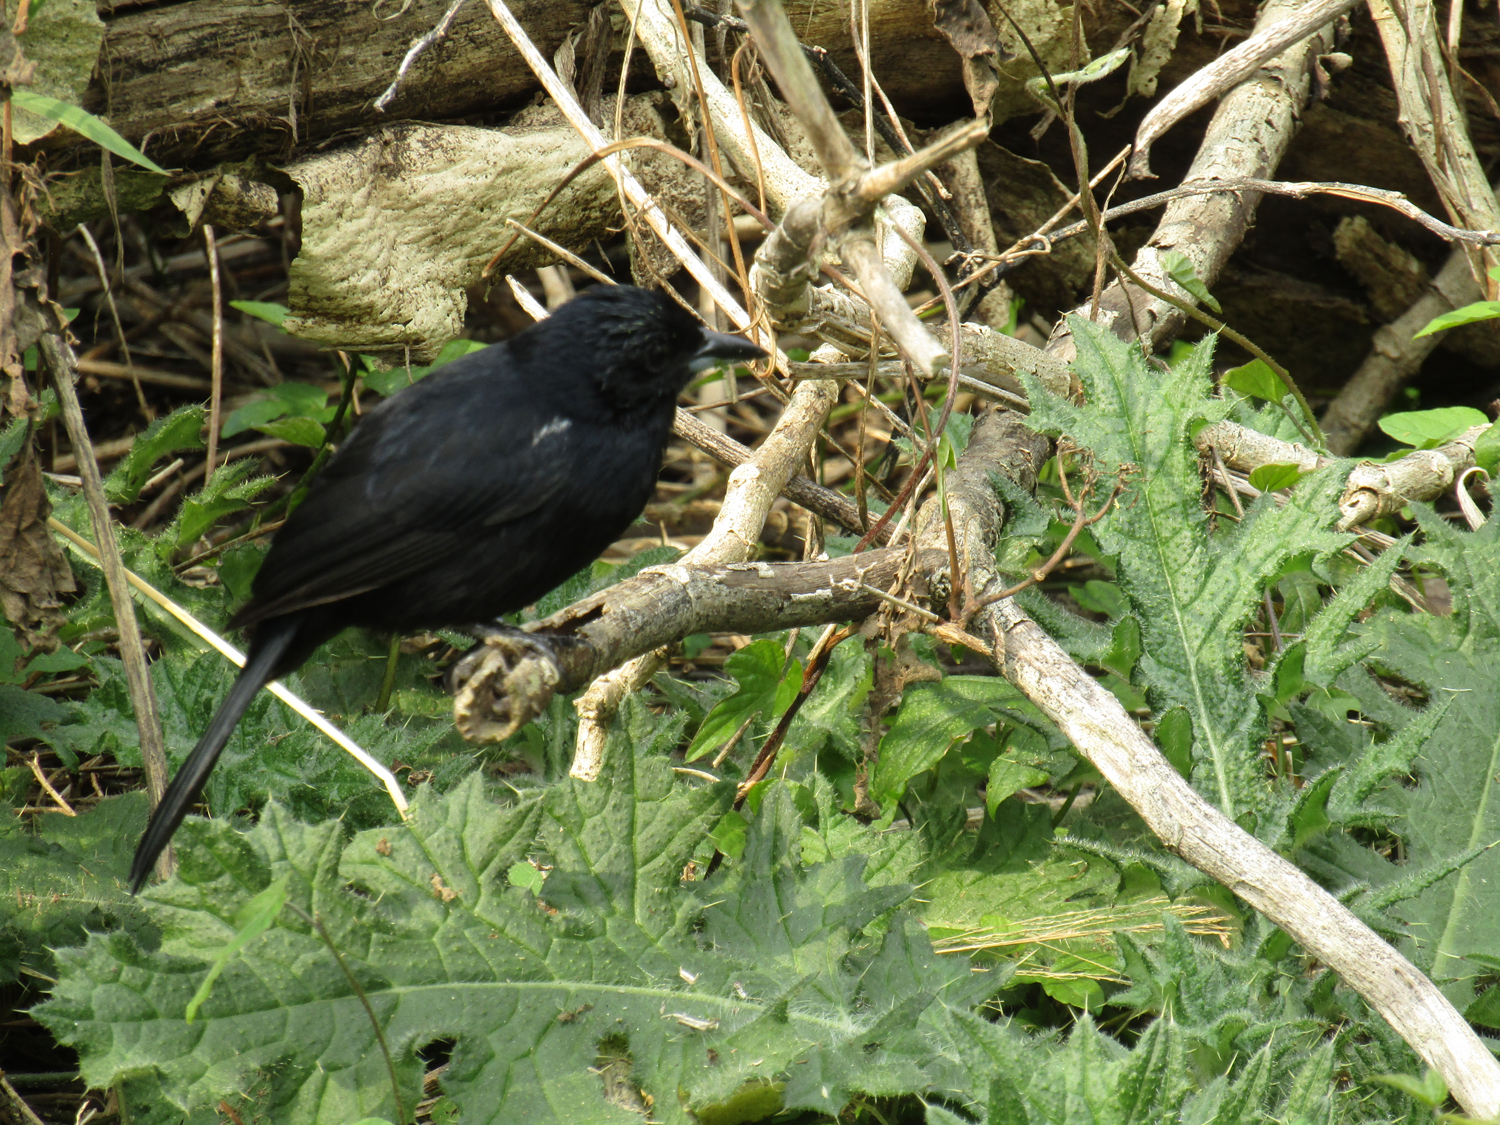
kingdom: Animalia
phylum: Chordata
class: Aves
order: Passeriformes
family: Thraupidae
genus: Tachyphonus
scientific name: Tachyphonus rufus
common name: White-lined tanager
